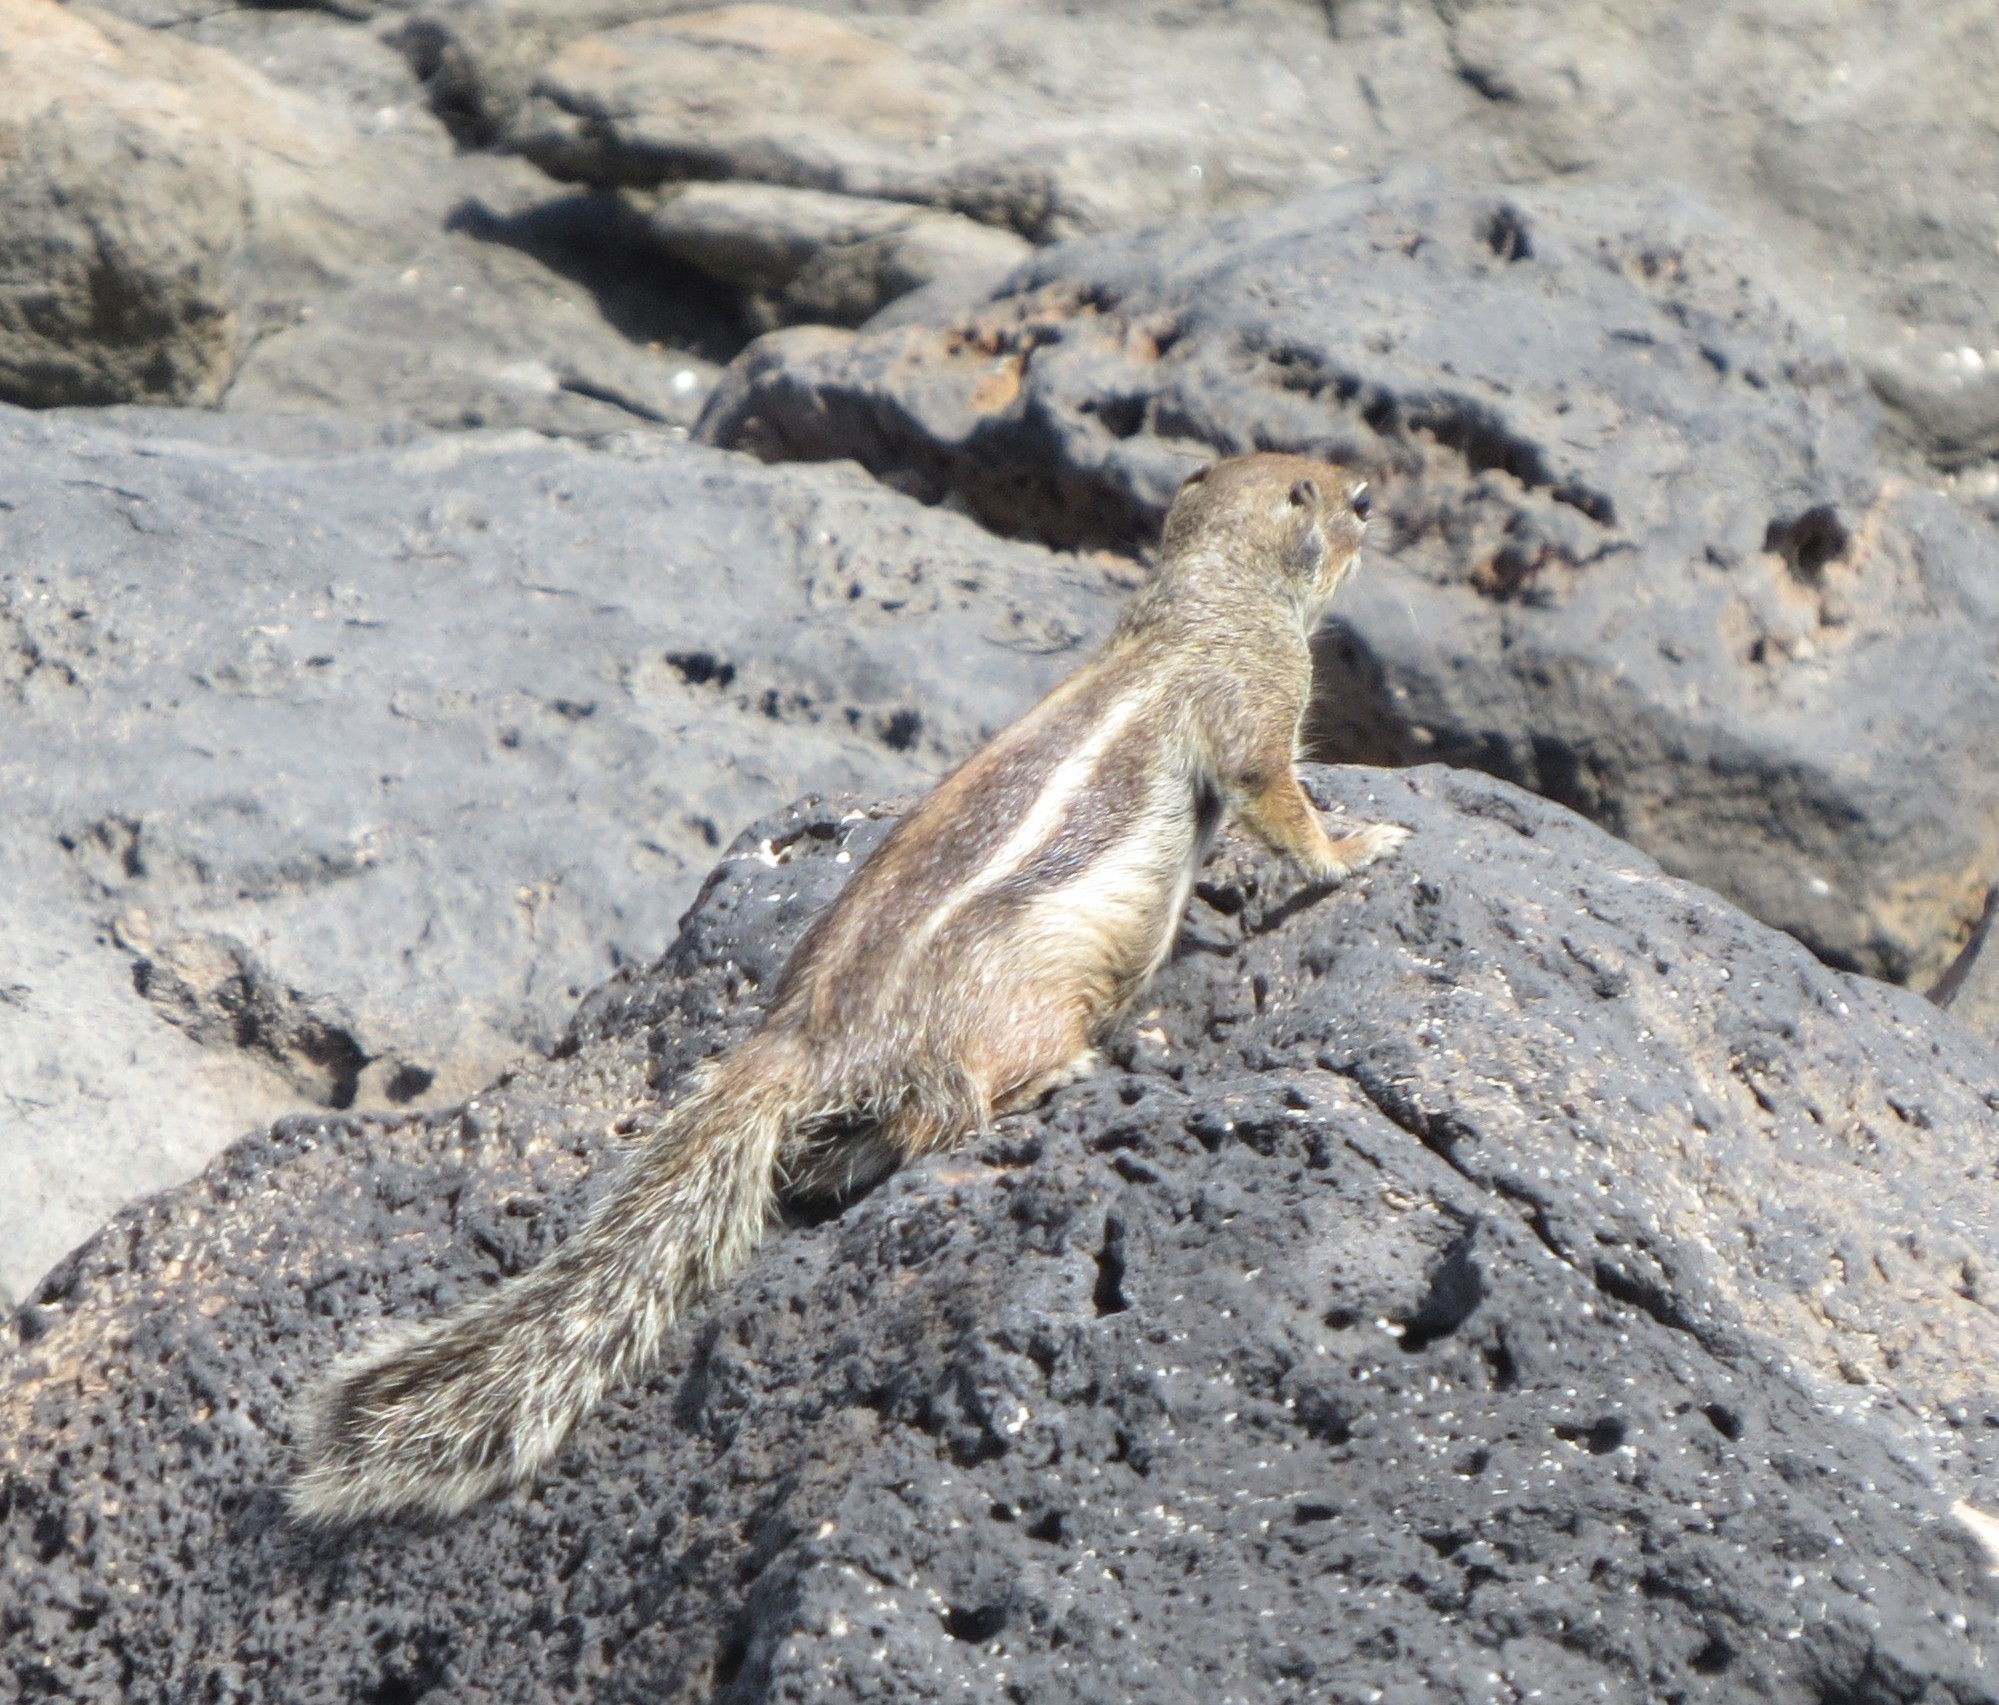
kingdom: Animalia
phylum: Chordata
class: Mammalia
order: Rodentia
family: Sciuridae
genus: Atlantoxerus
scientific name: Atlantoxerus getulus
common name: Barbary ground squirrel
